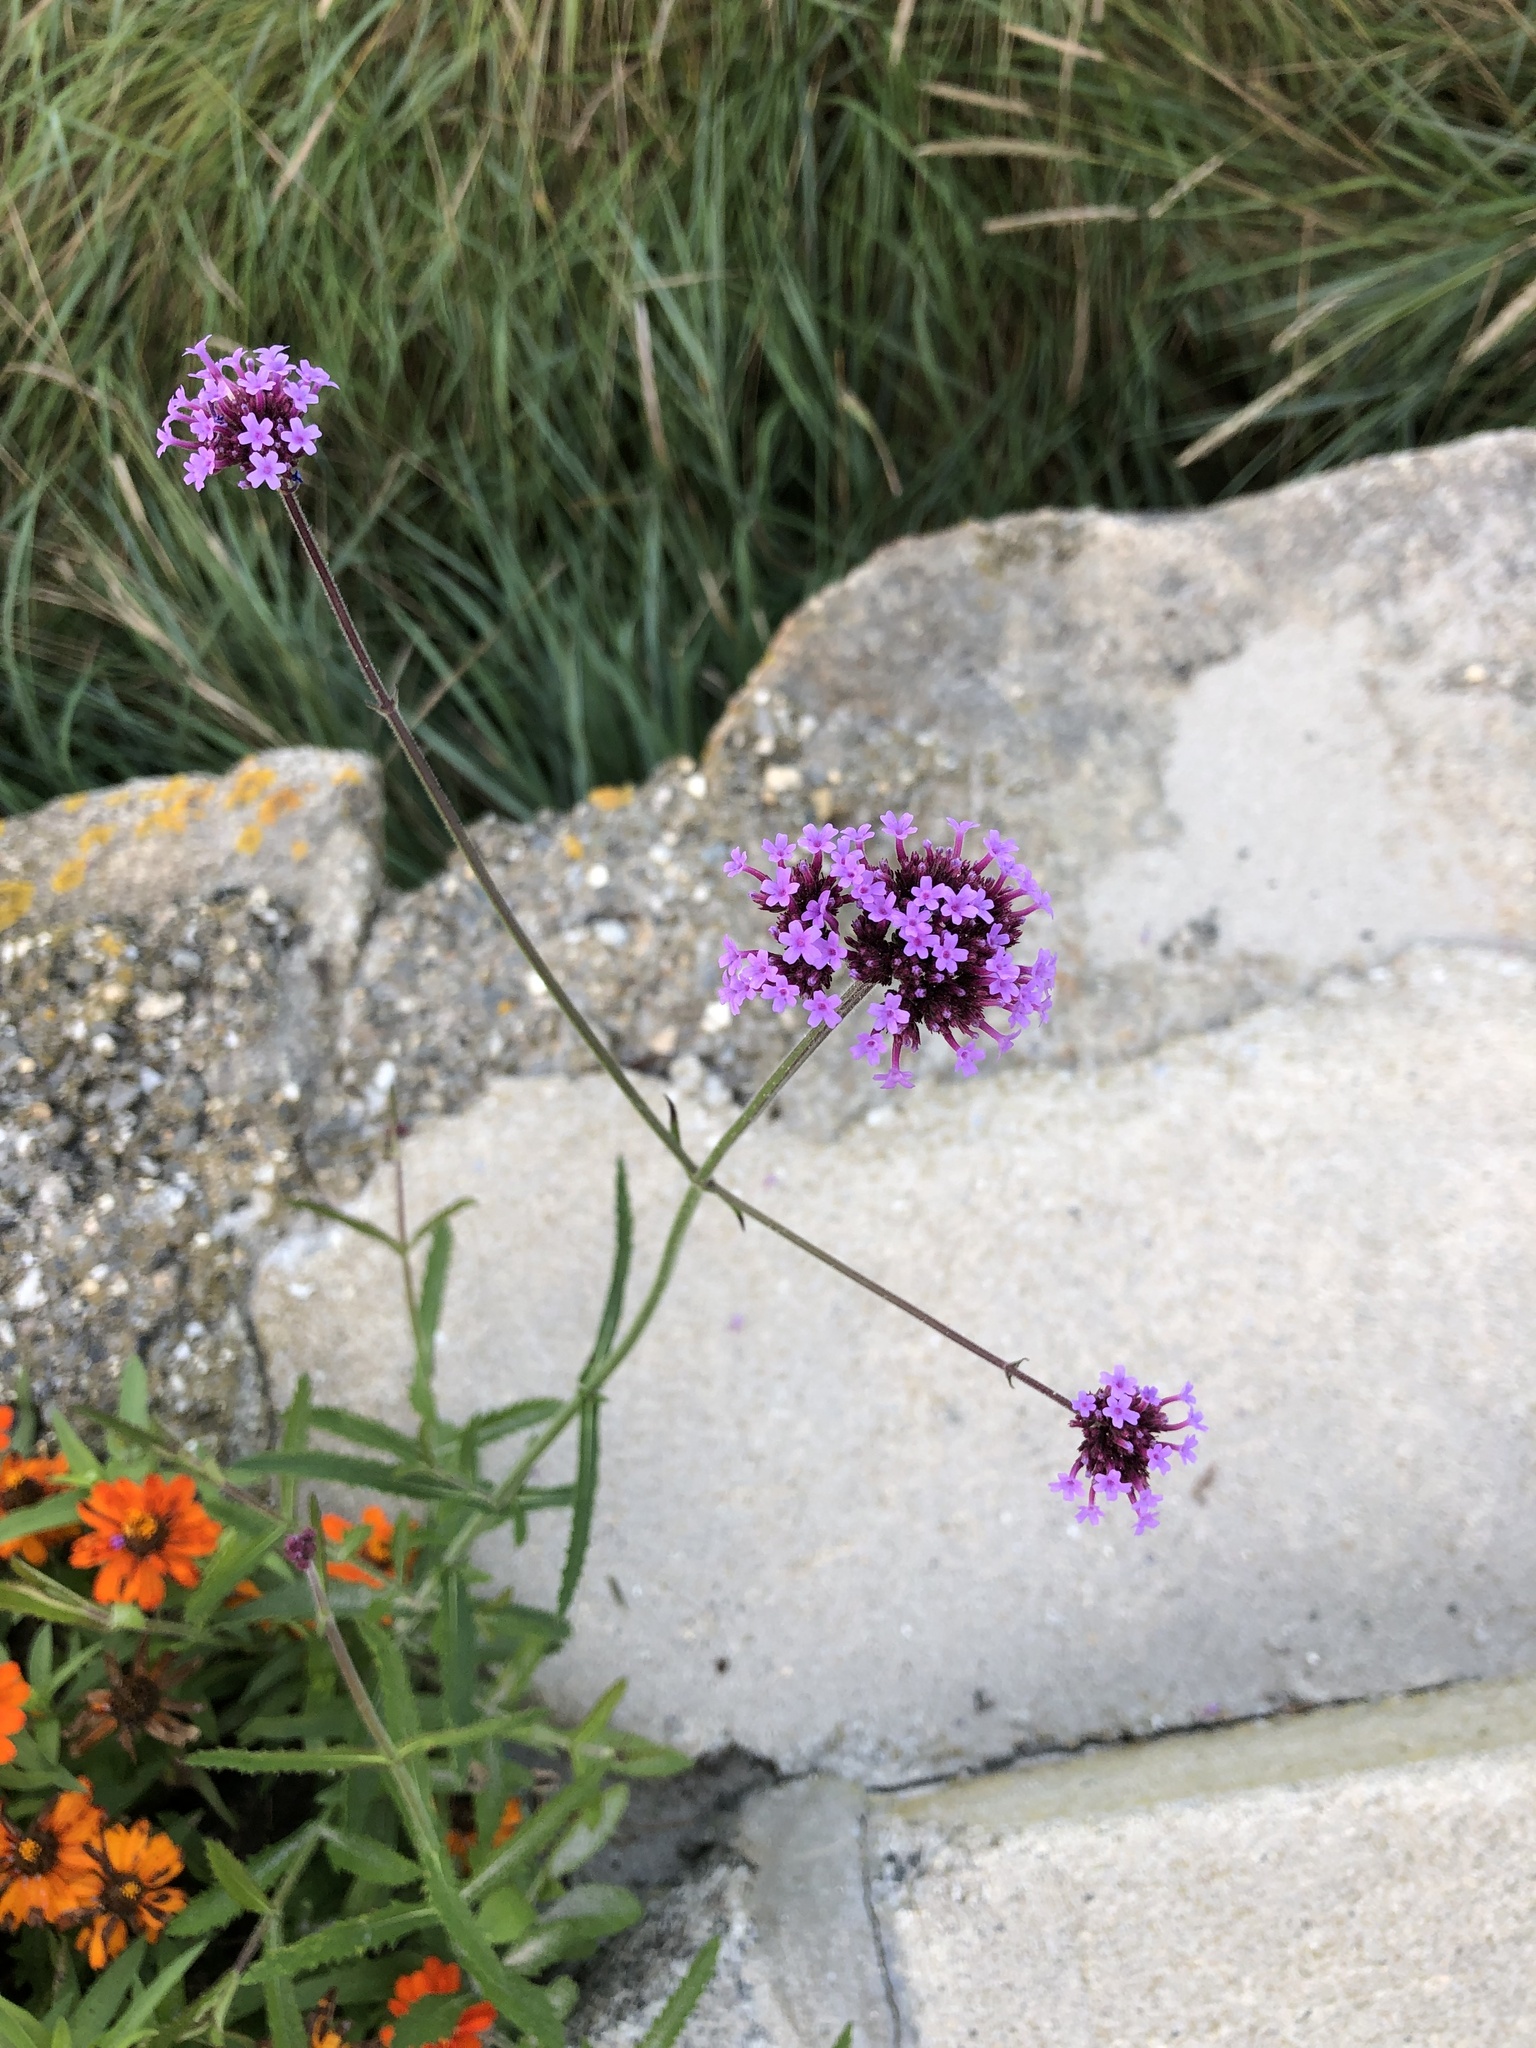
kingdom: Plantae
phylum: Tracheophyta
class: Magnoliopsida
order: Lamiales
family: Verbenaceae
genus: Verbena
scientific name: Verbena bonariensis
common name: Purpletop vervain
